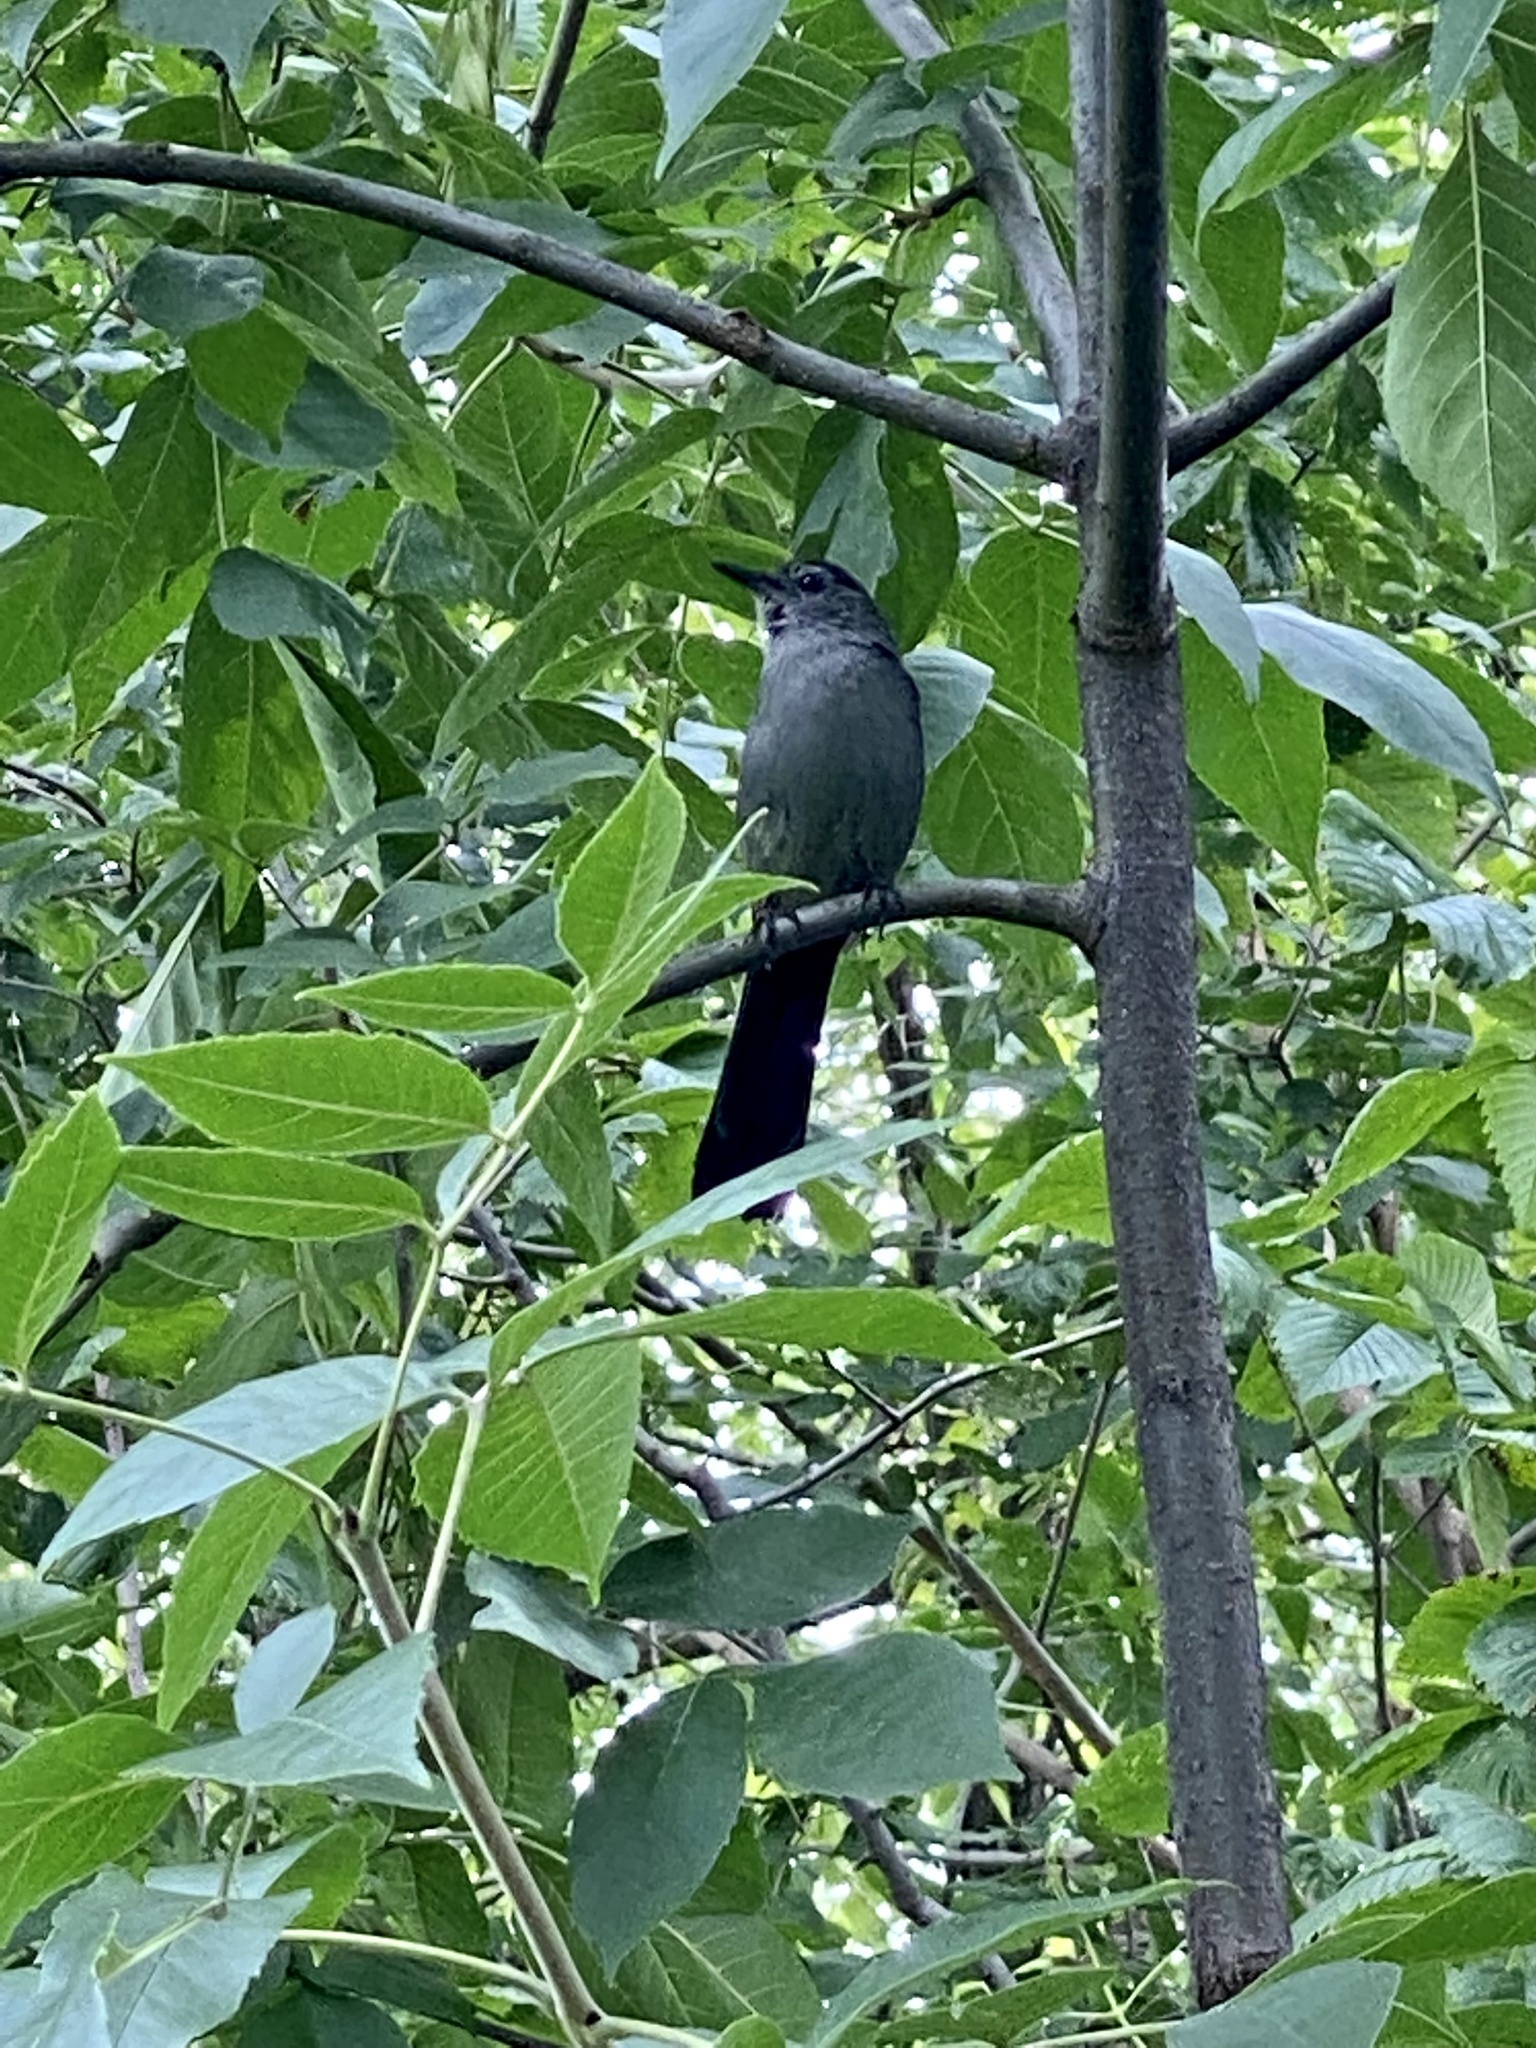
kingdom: Animalia
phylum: Chordata
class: Aves
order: Passeriformes
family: Mimidae
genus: Dumetella
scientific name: Dumetella carolinensis
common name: Gray catbird
